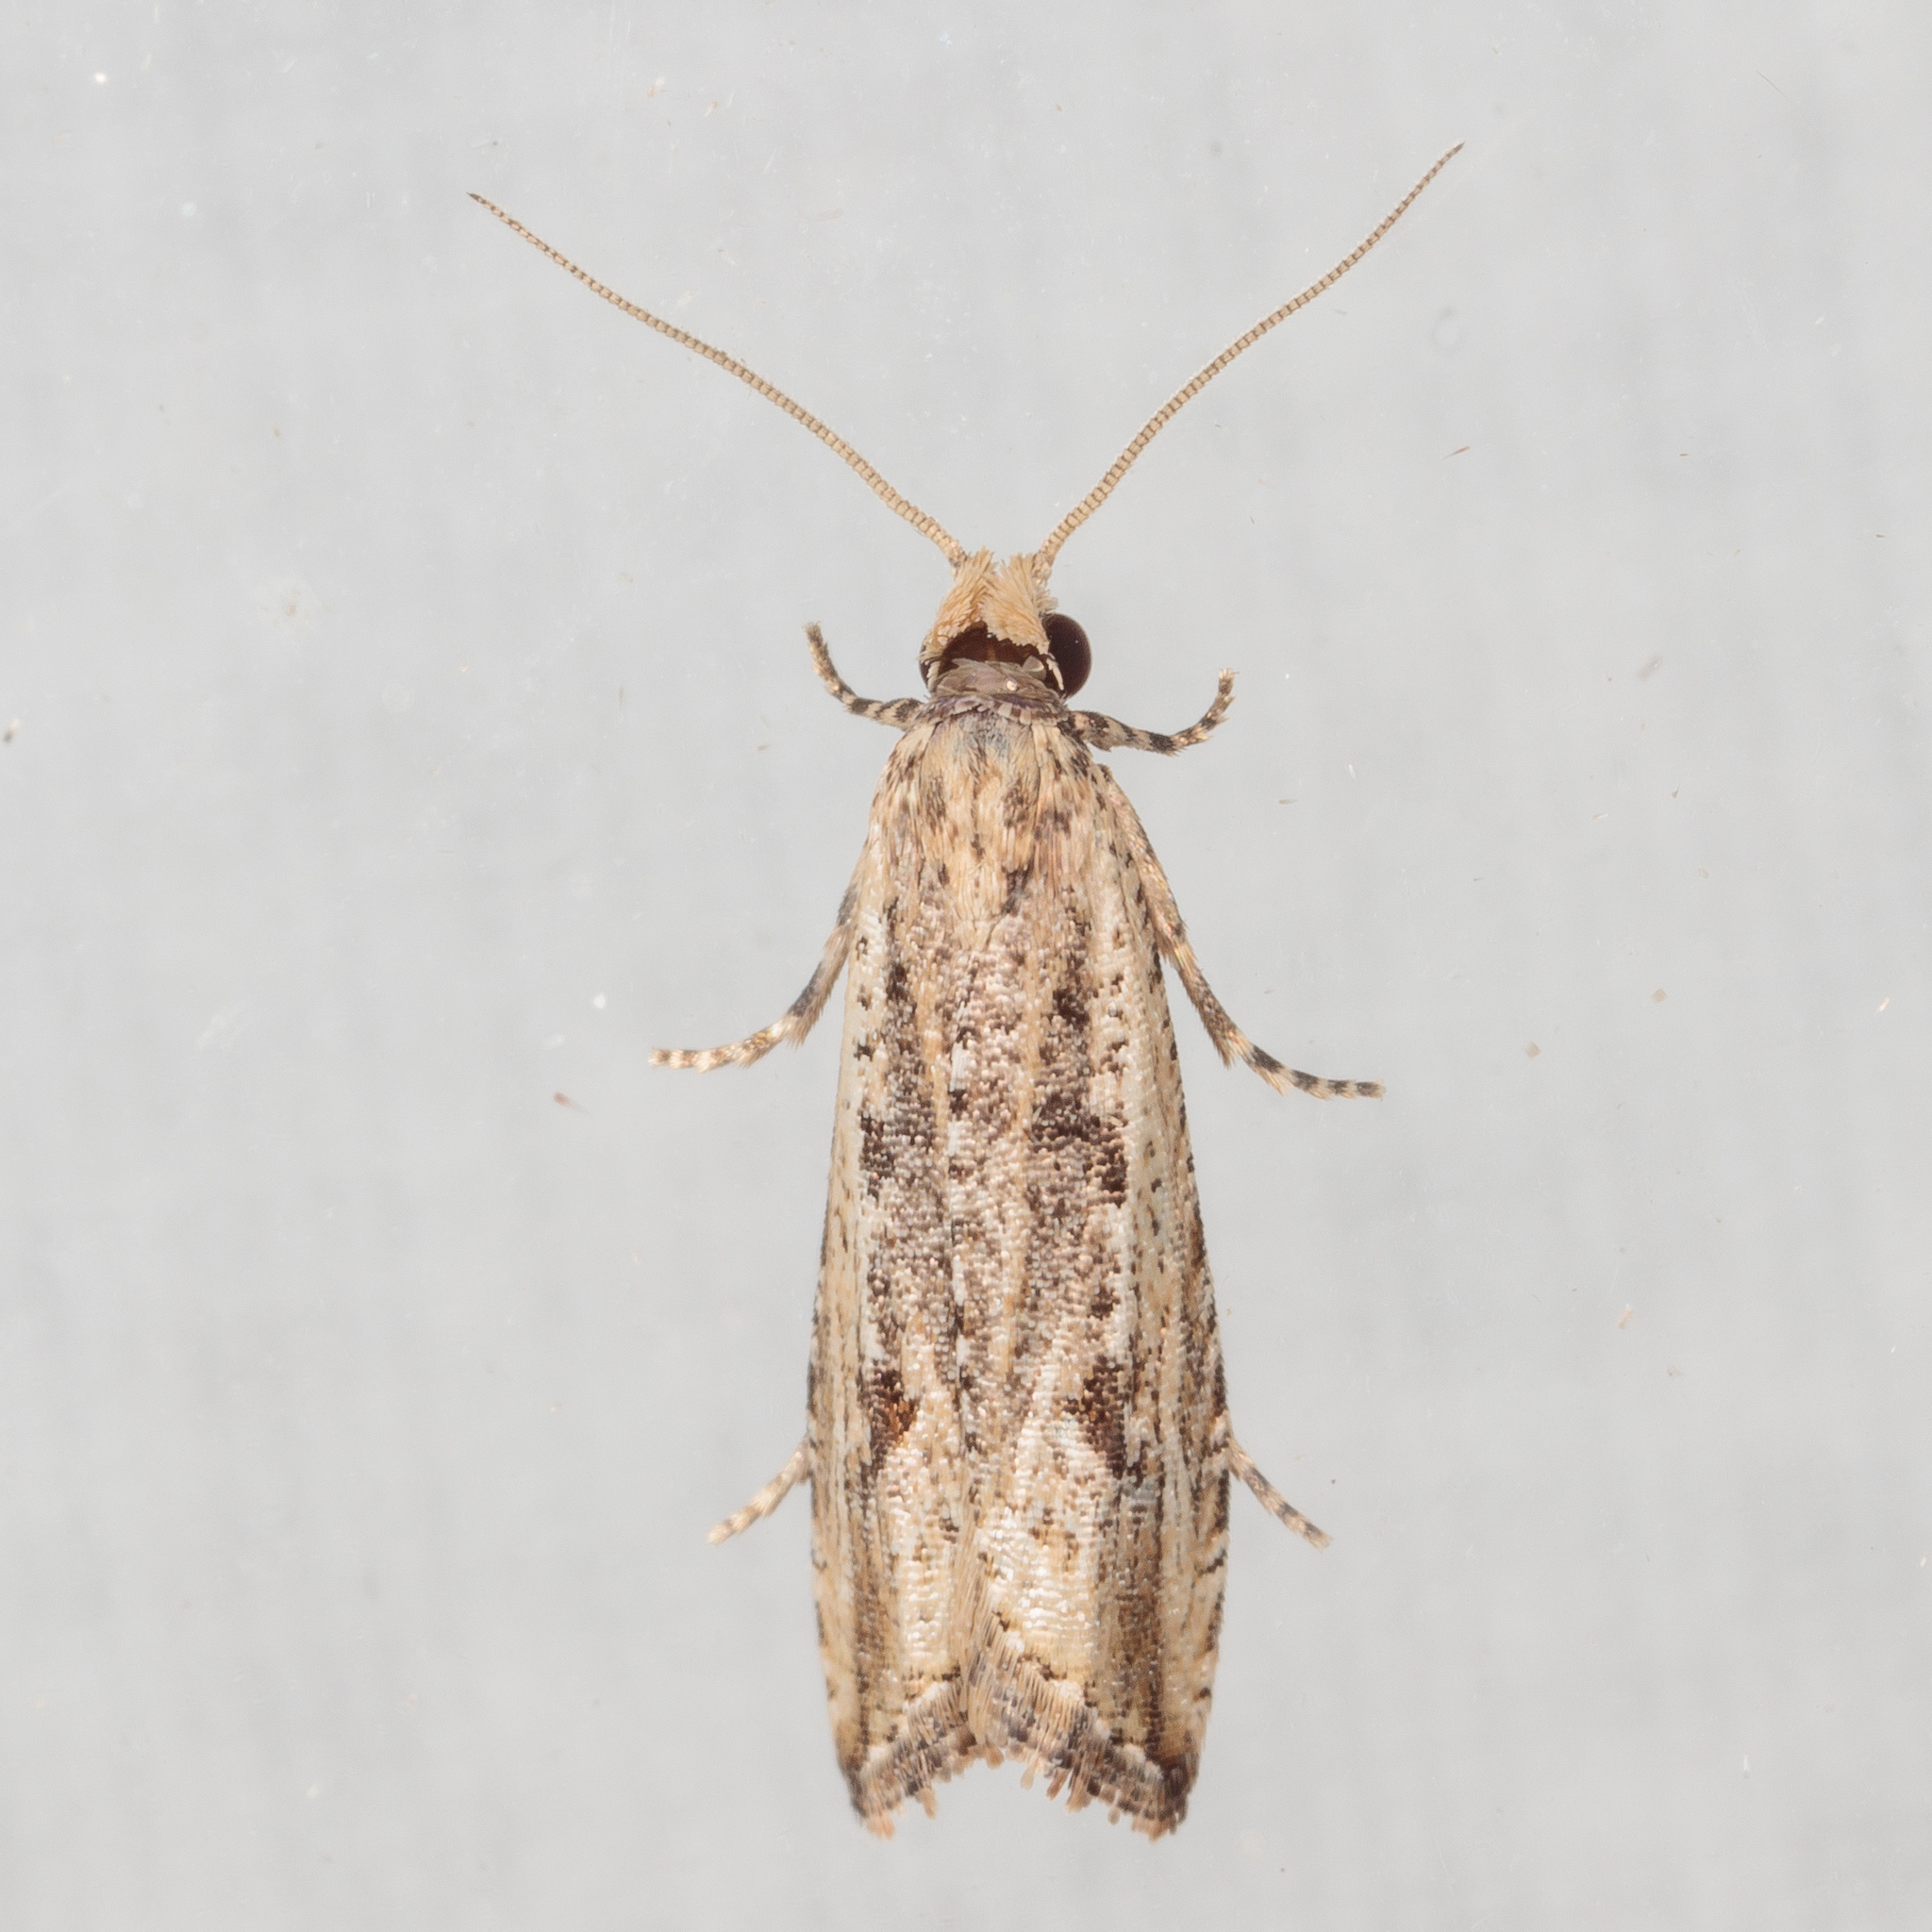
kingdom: Animalia
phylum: Arthropoda
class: Insecta
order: Lepidoptera
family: Tortricidae
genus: Bactra
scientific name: Bactra verutana
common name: Javelin moth
